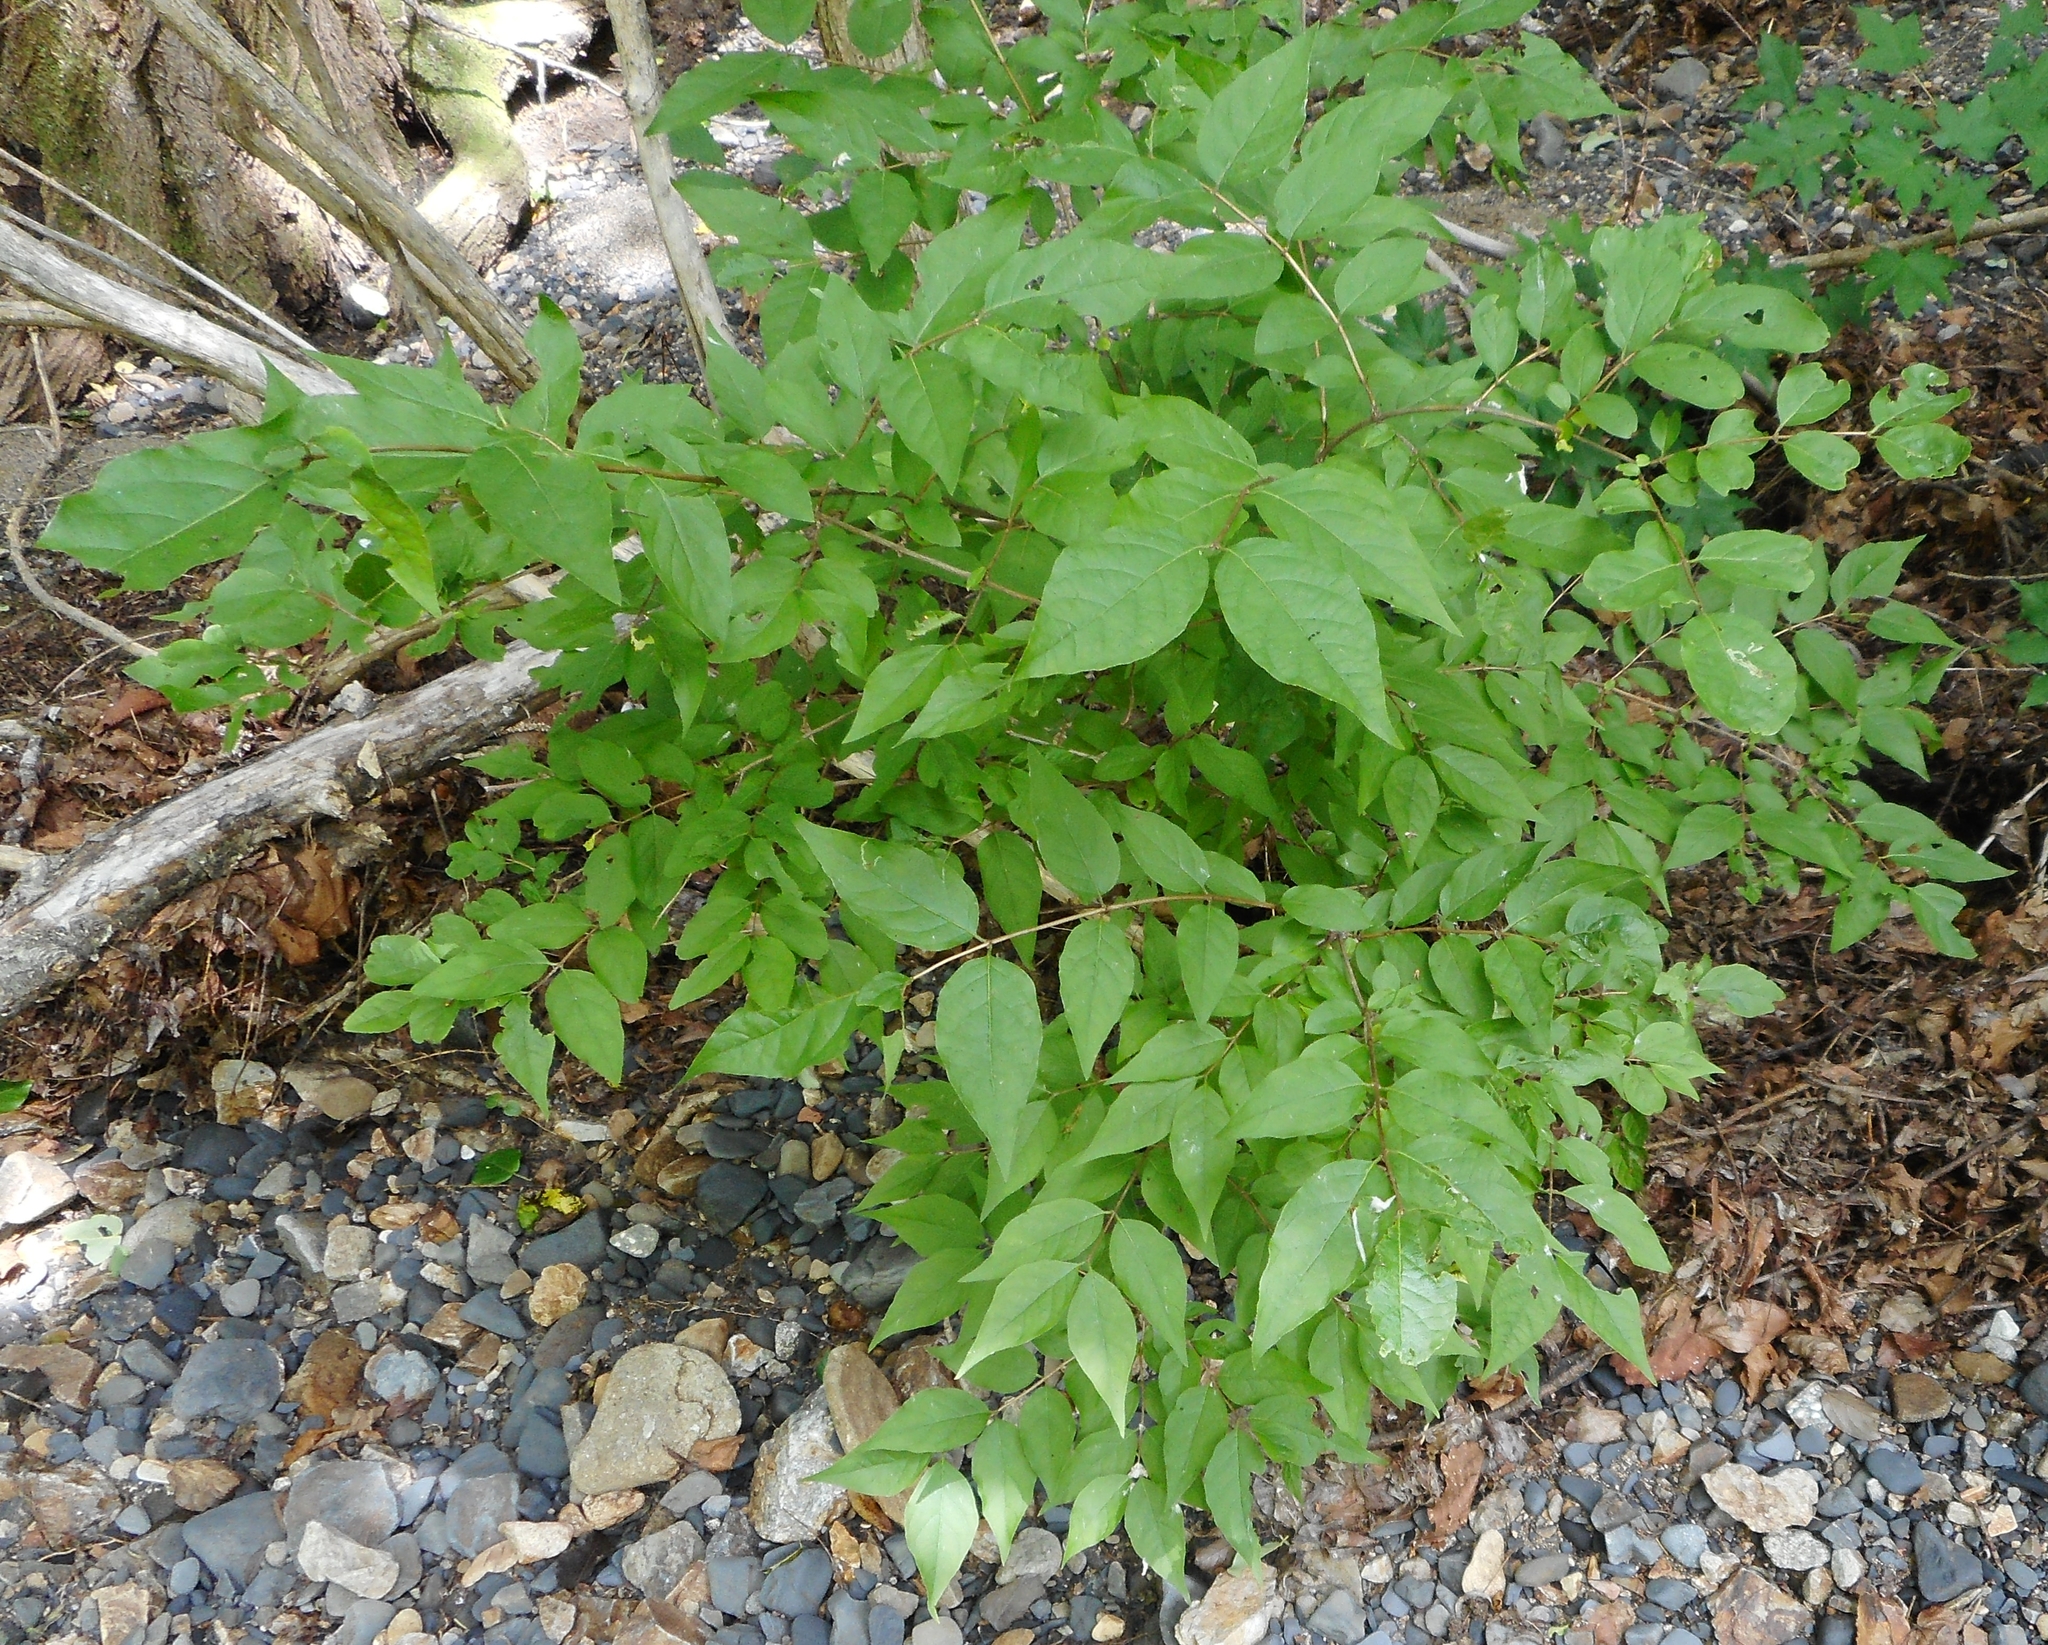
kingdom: Plantae
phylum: Tracheophyta
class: Magnoliopsida
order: Dipsacales
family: Caprifoliaceae
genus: Lonicera
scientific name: Lonicera maackii
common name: Amur honeysuckle
